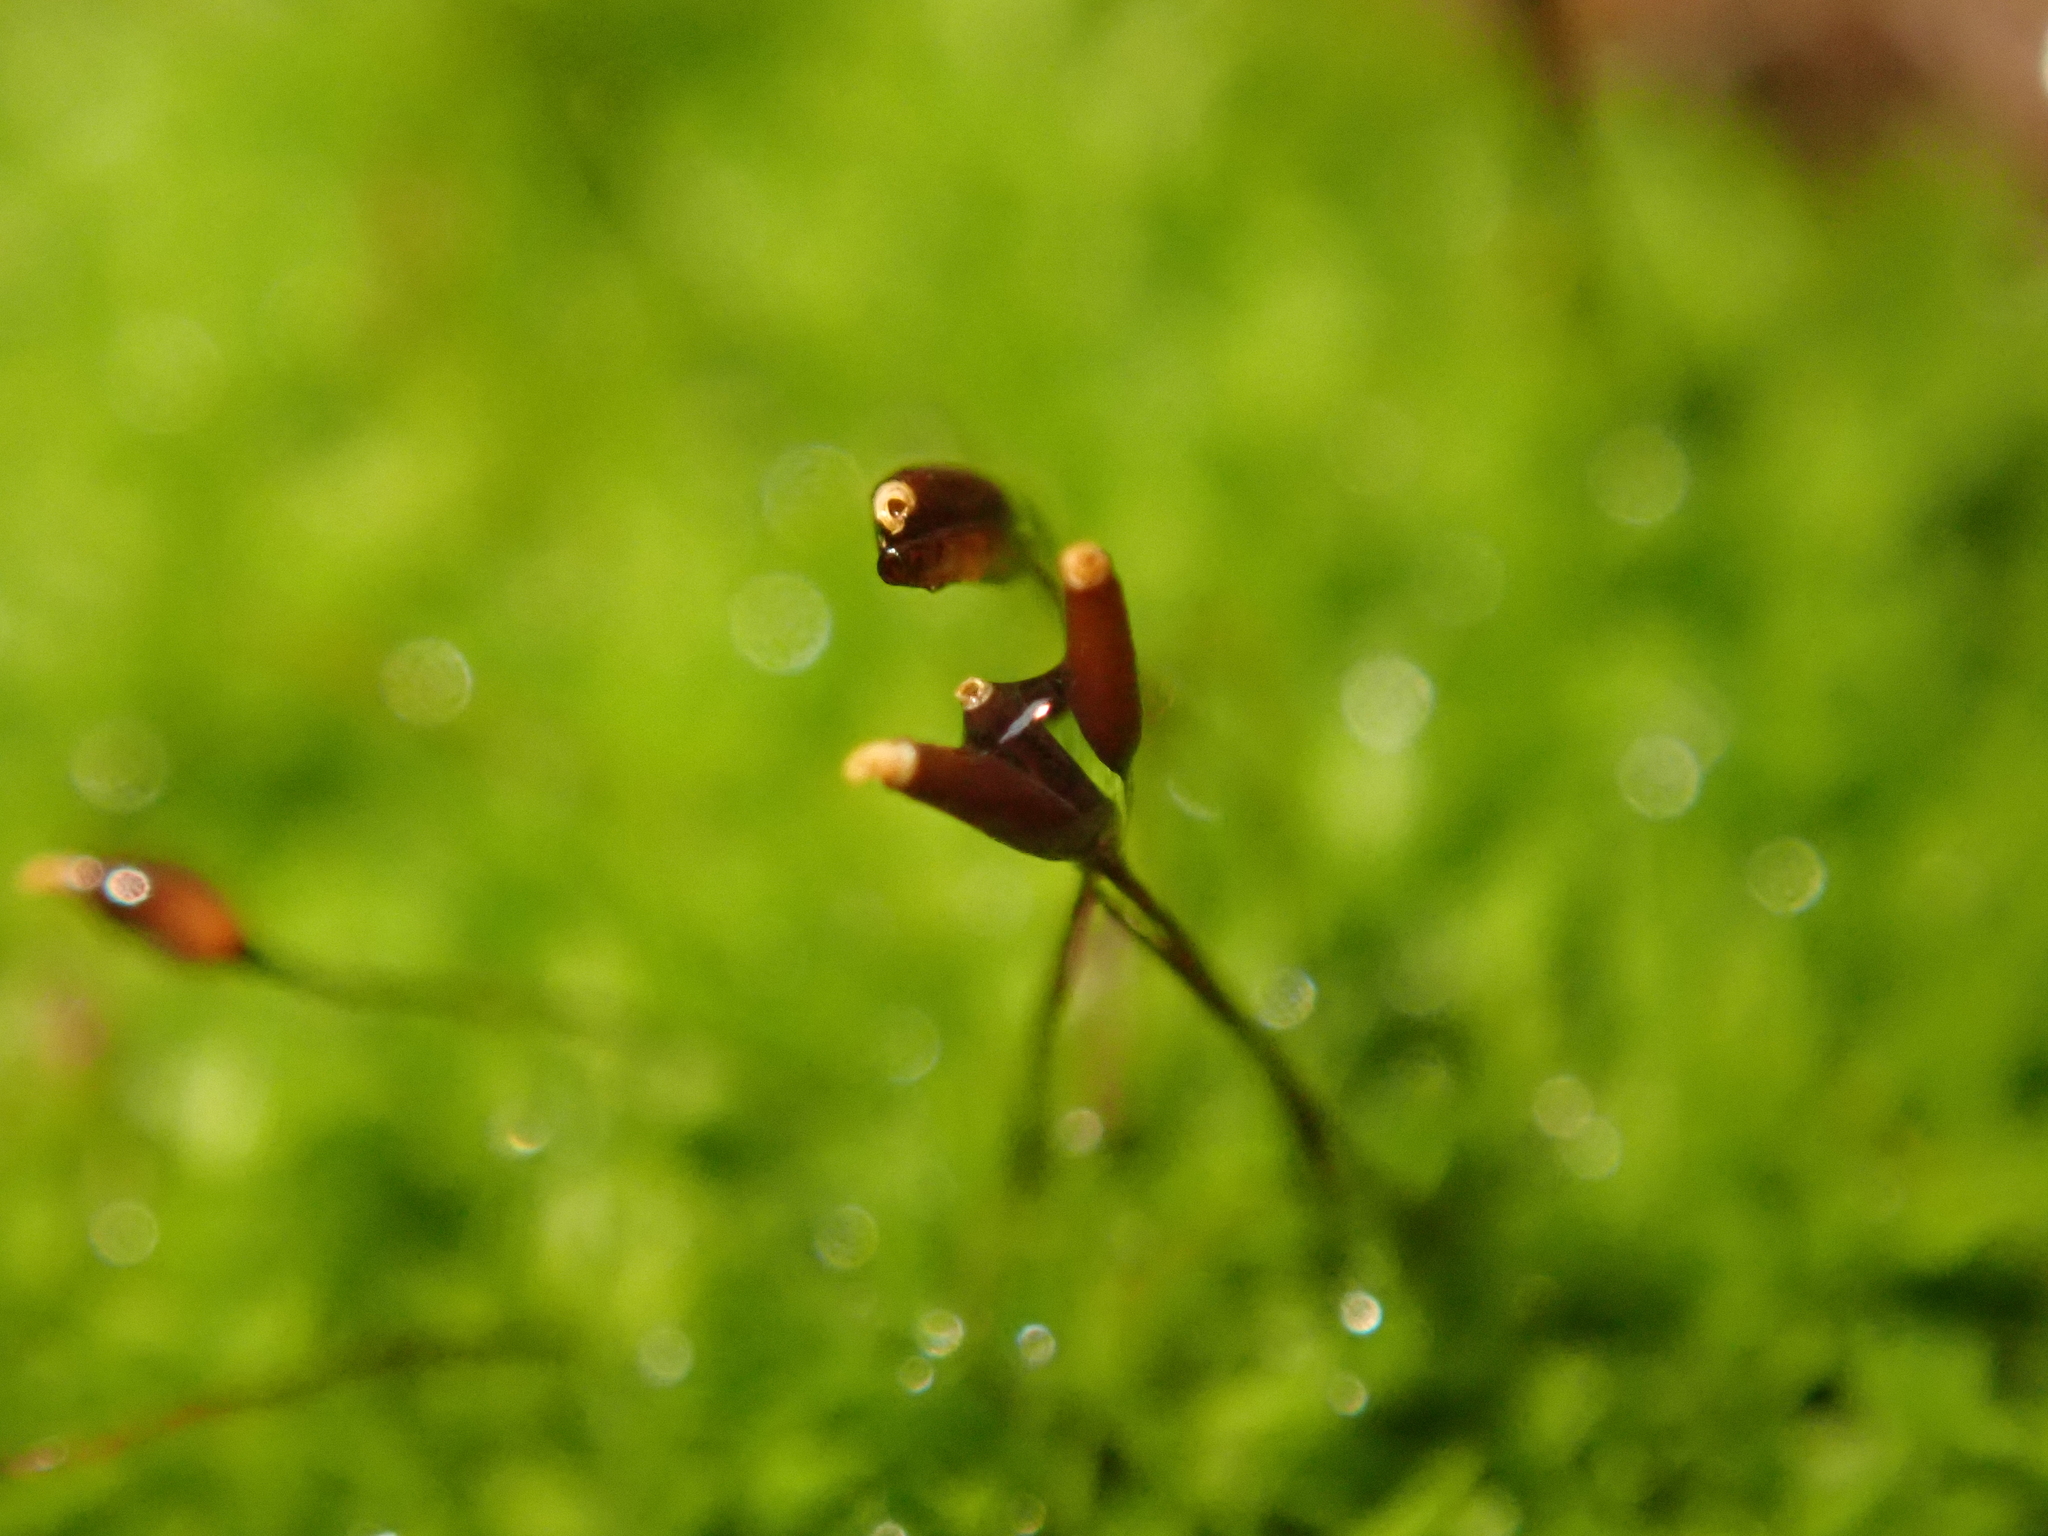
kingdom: Plantae
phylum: Bryophyta
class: Bryopsida
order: Pottiales
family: Pottiaceae
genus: Tortula
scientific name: Tortula muralis
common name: Wall screw-moss
